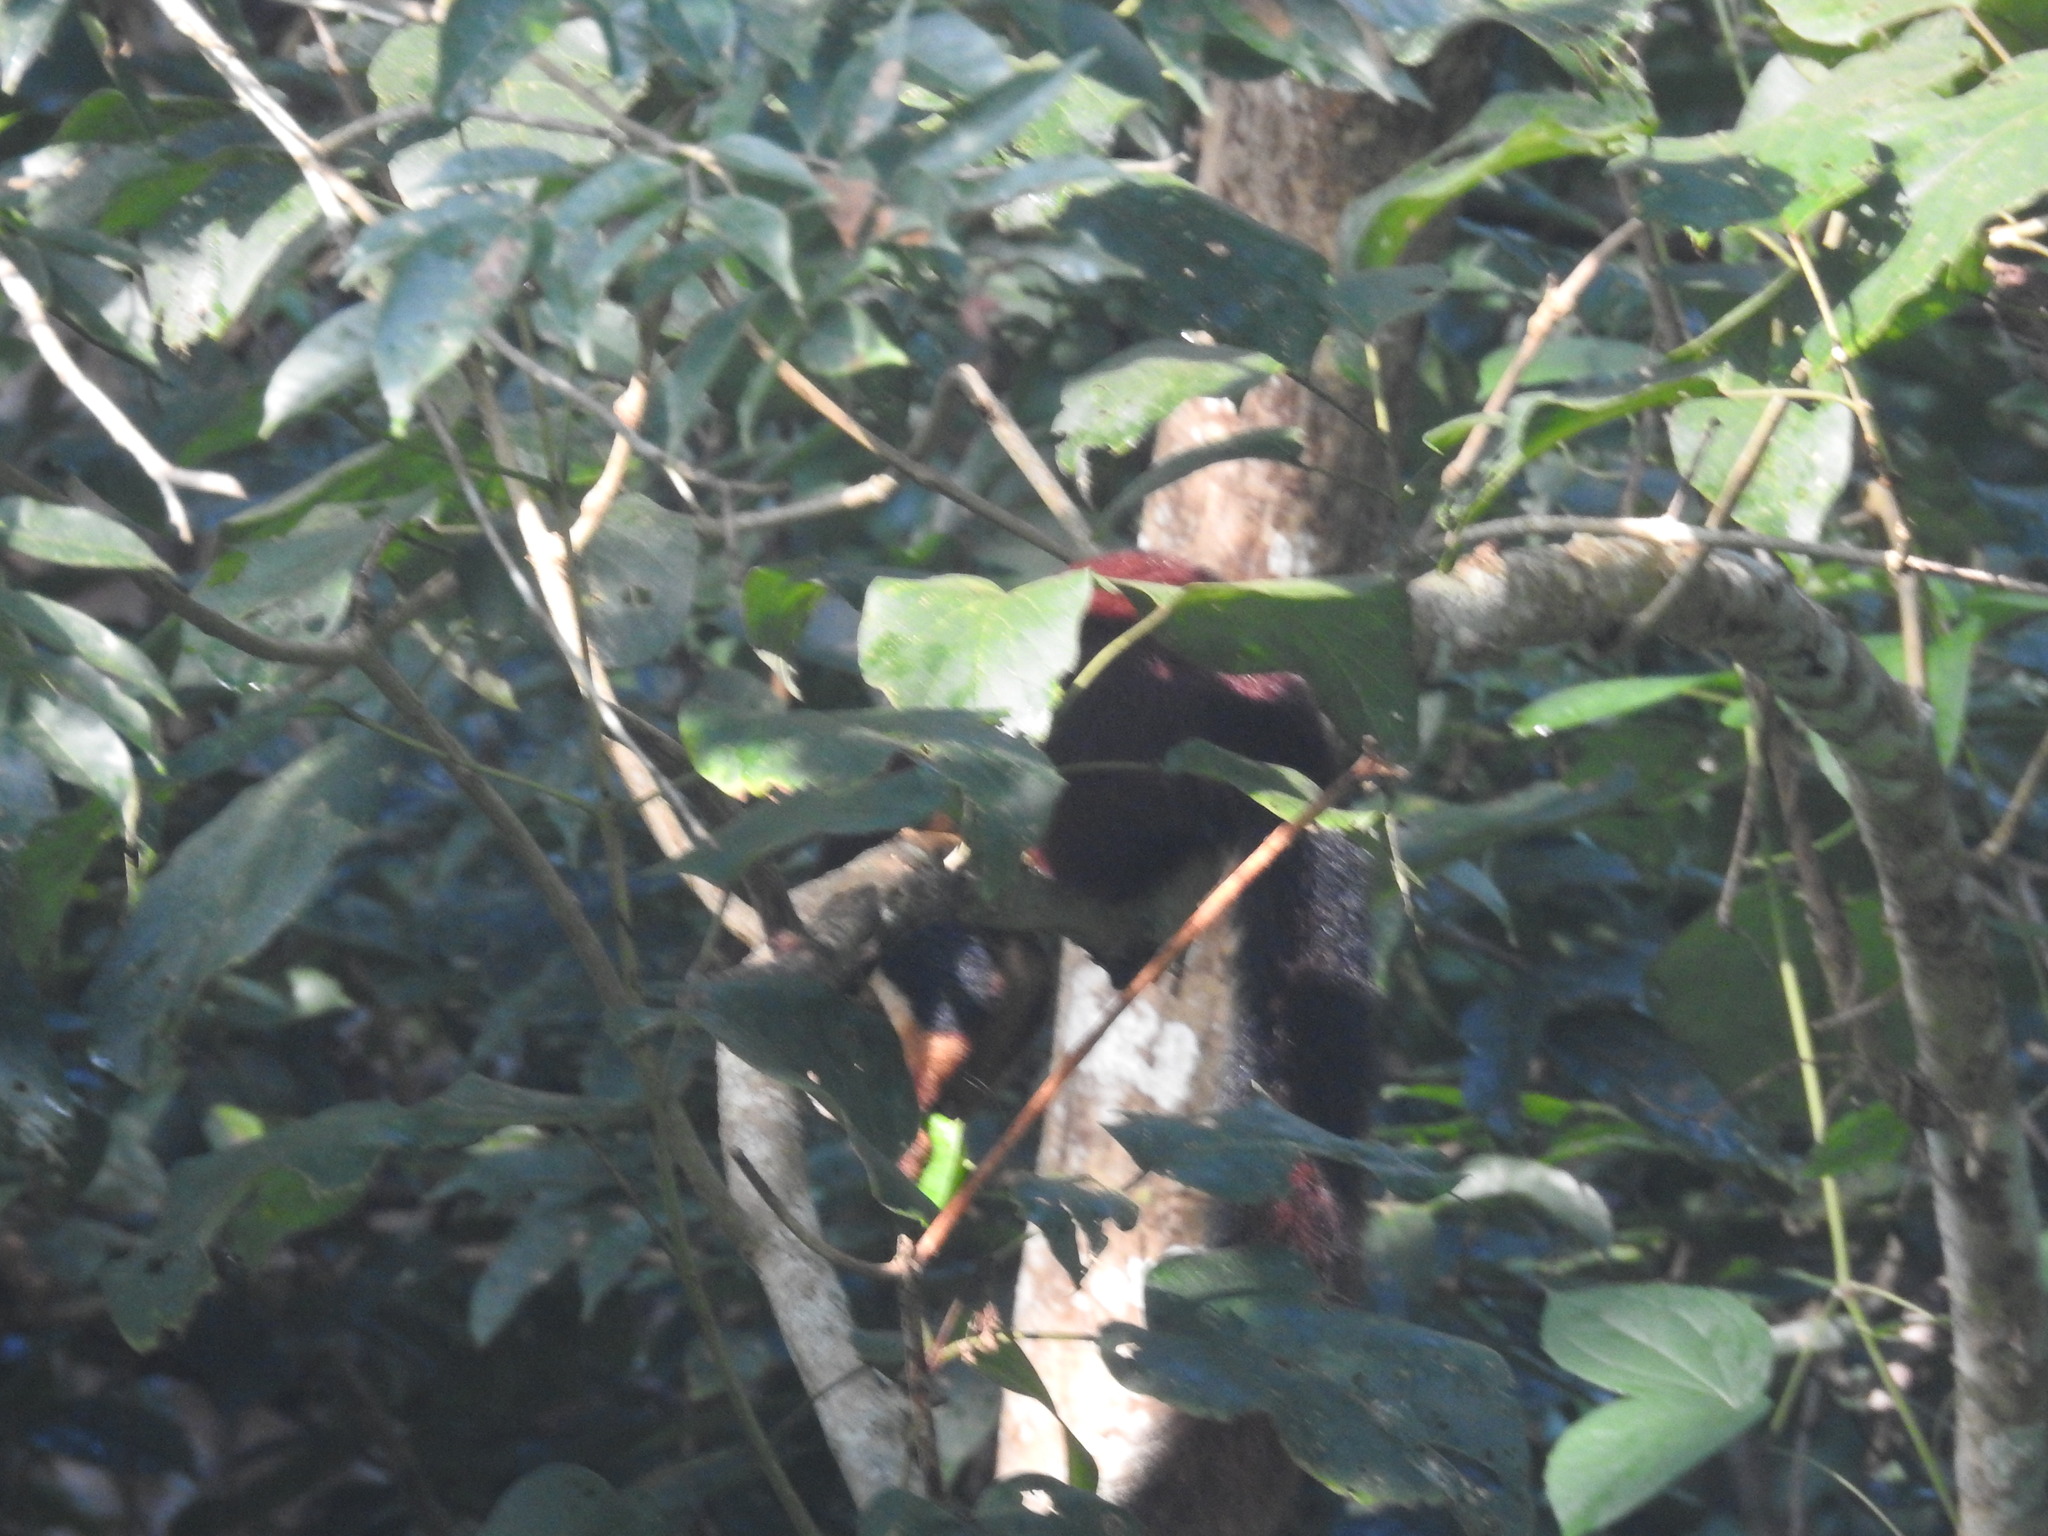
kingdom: Animalia
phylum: Chordata
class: Mammalia
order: Rodentia
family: Sciuridae
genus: Ratufa
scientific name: Ratufa indica
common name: Indian giant squirrel
